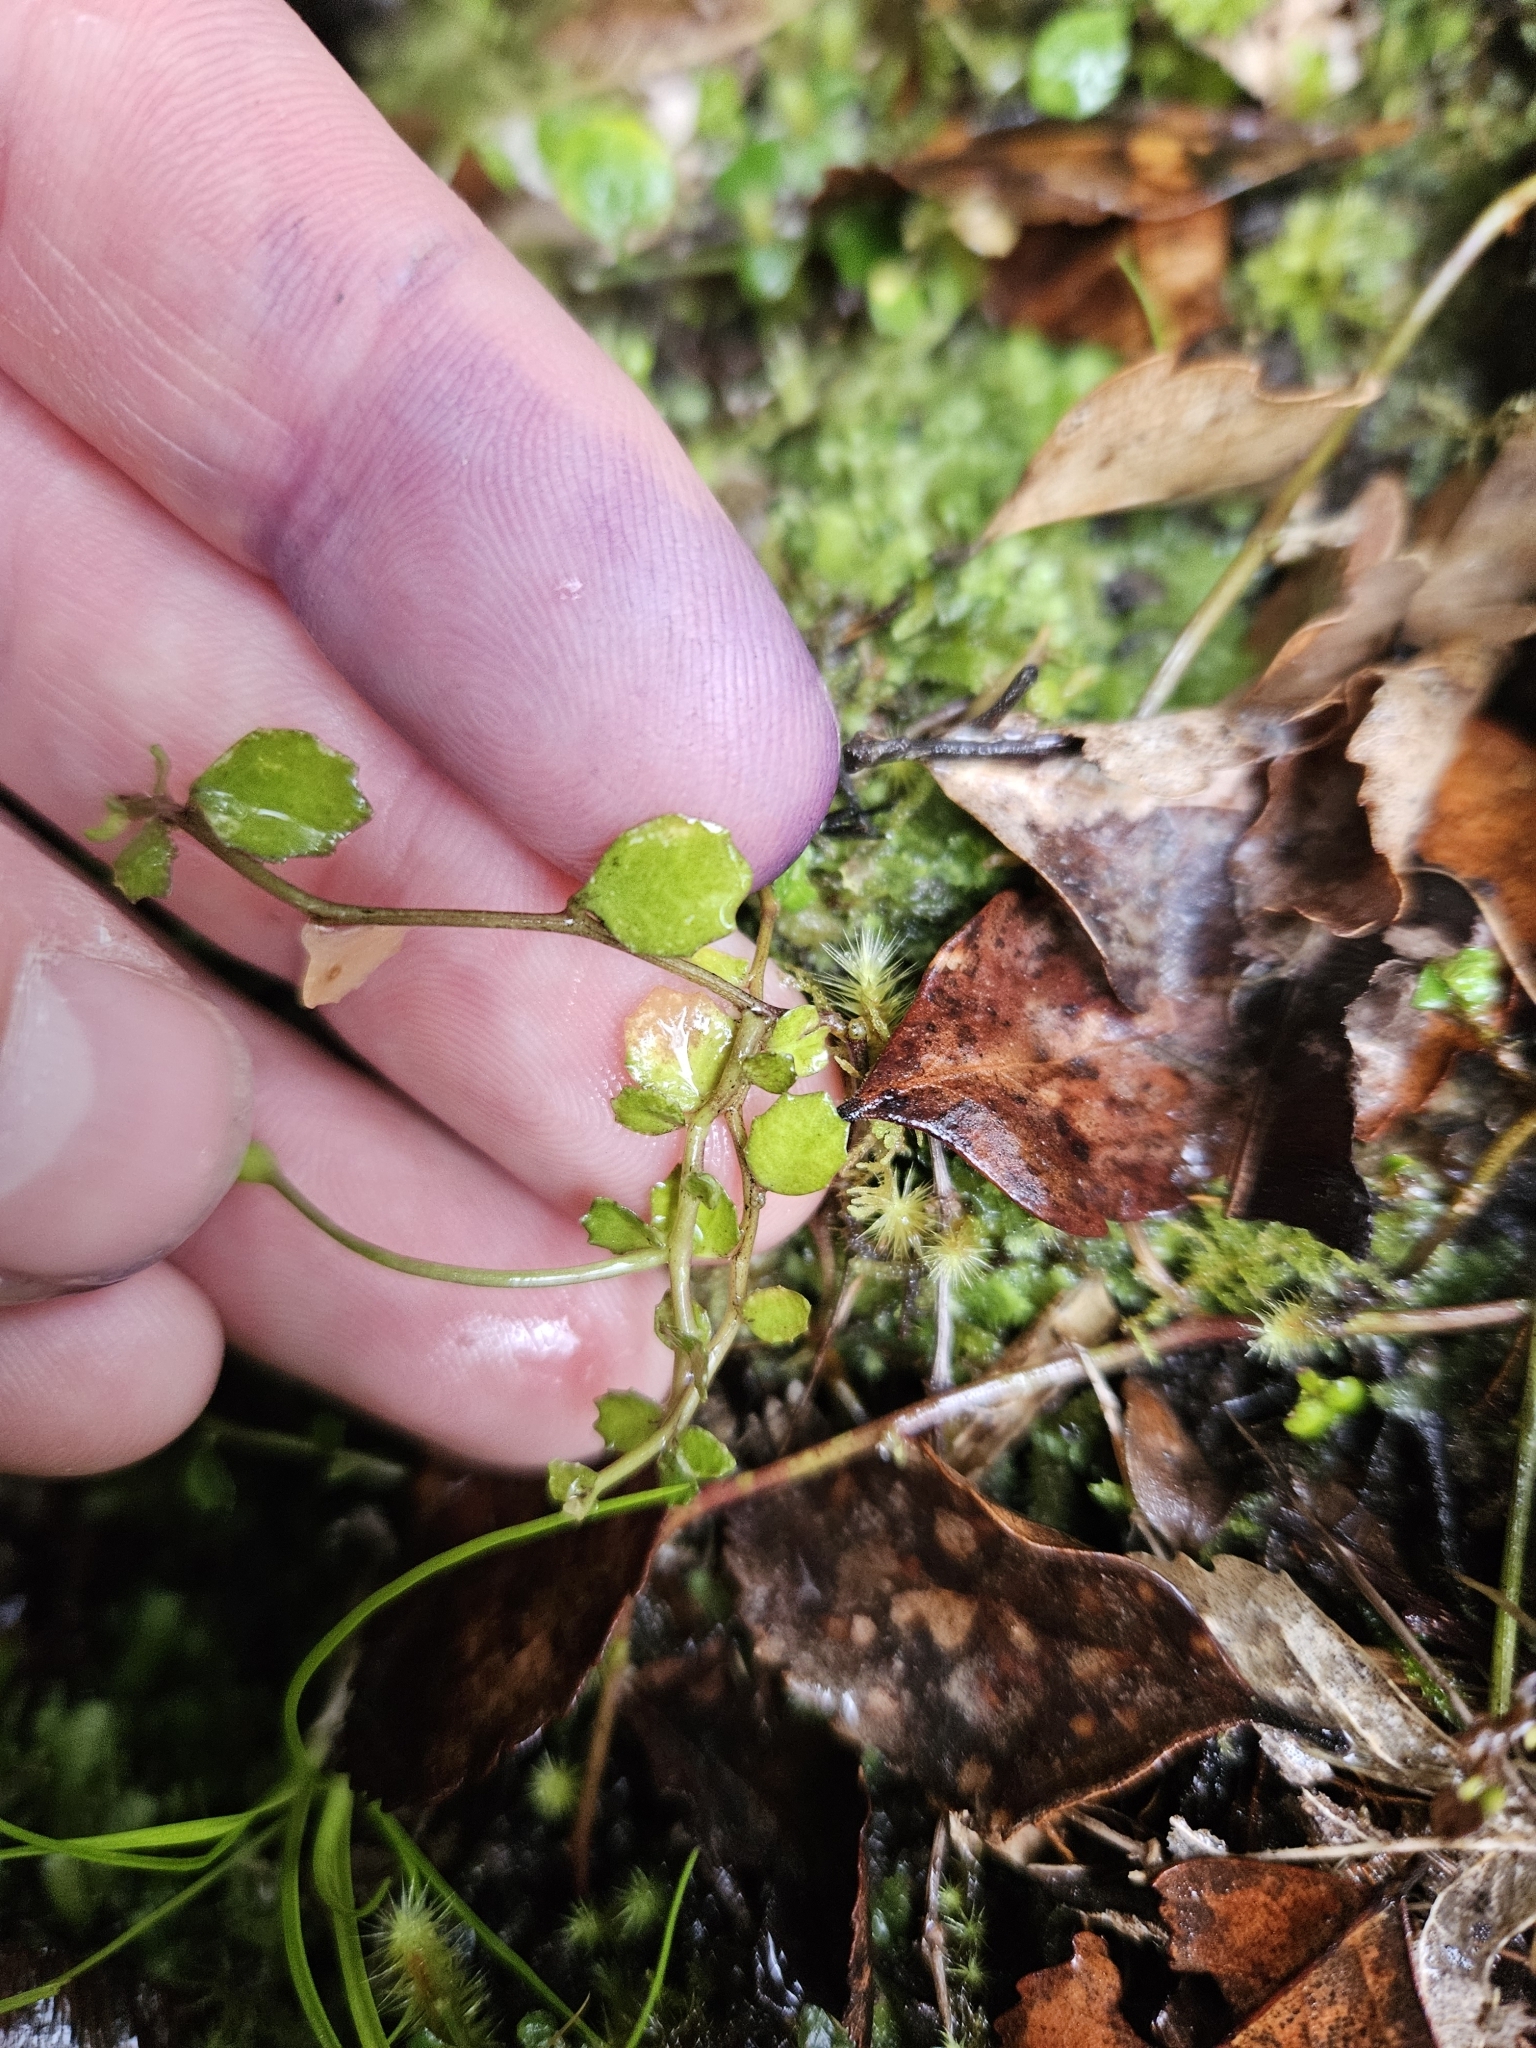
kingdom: Plantae
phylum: Tracheophyta
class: Magnoliopsida
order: Asterales
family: Campanulaceae
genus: Lobelia
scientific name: Lobelia angulata
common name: Lawn lobelia
